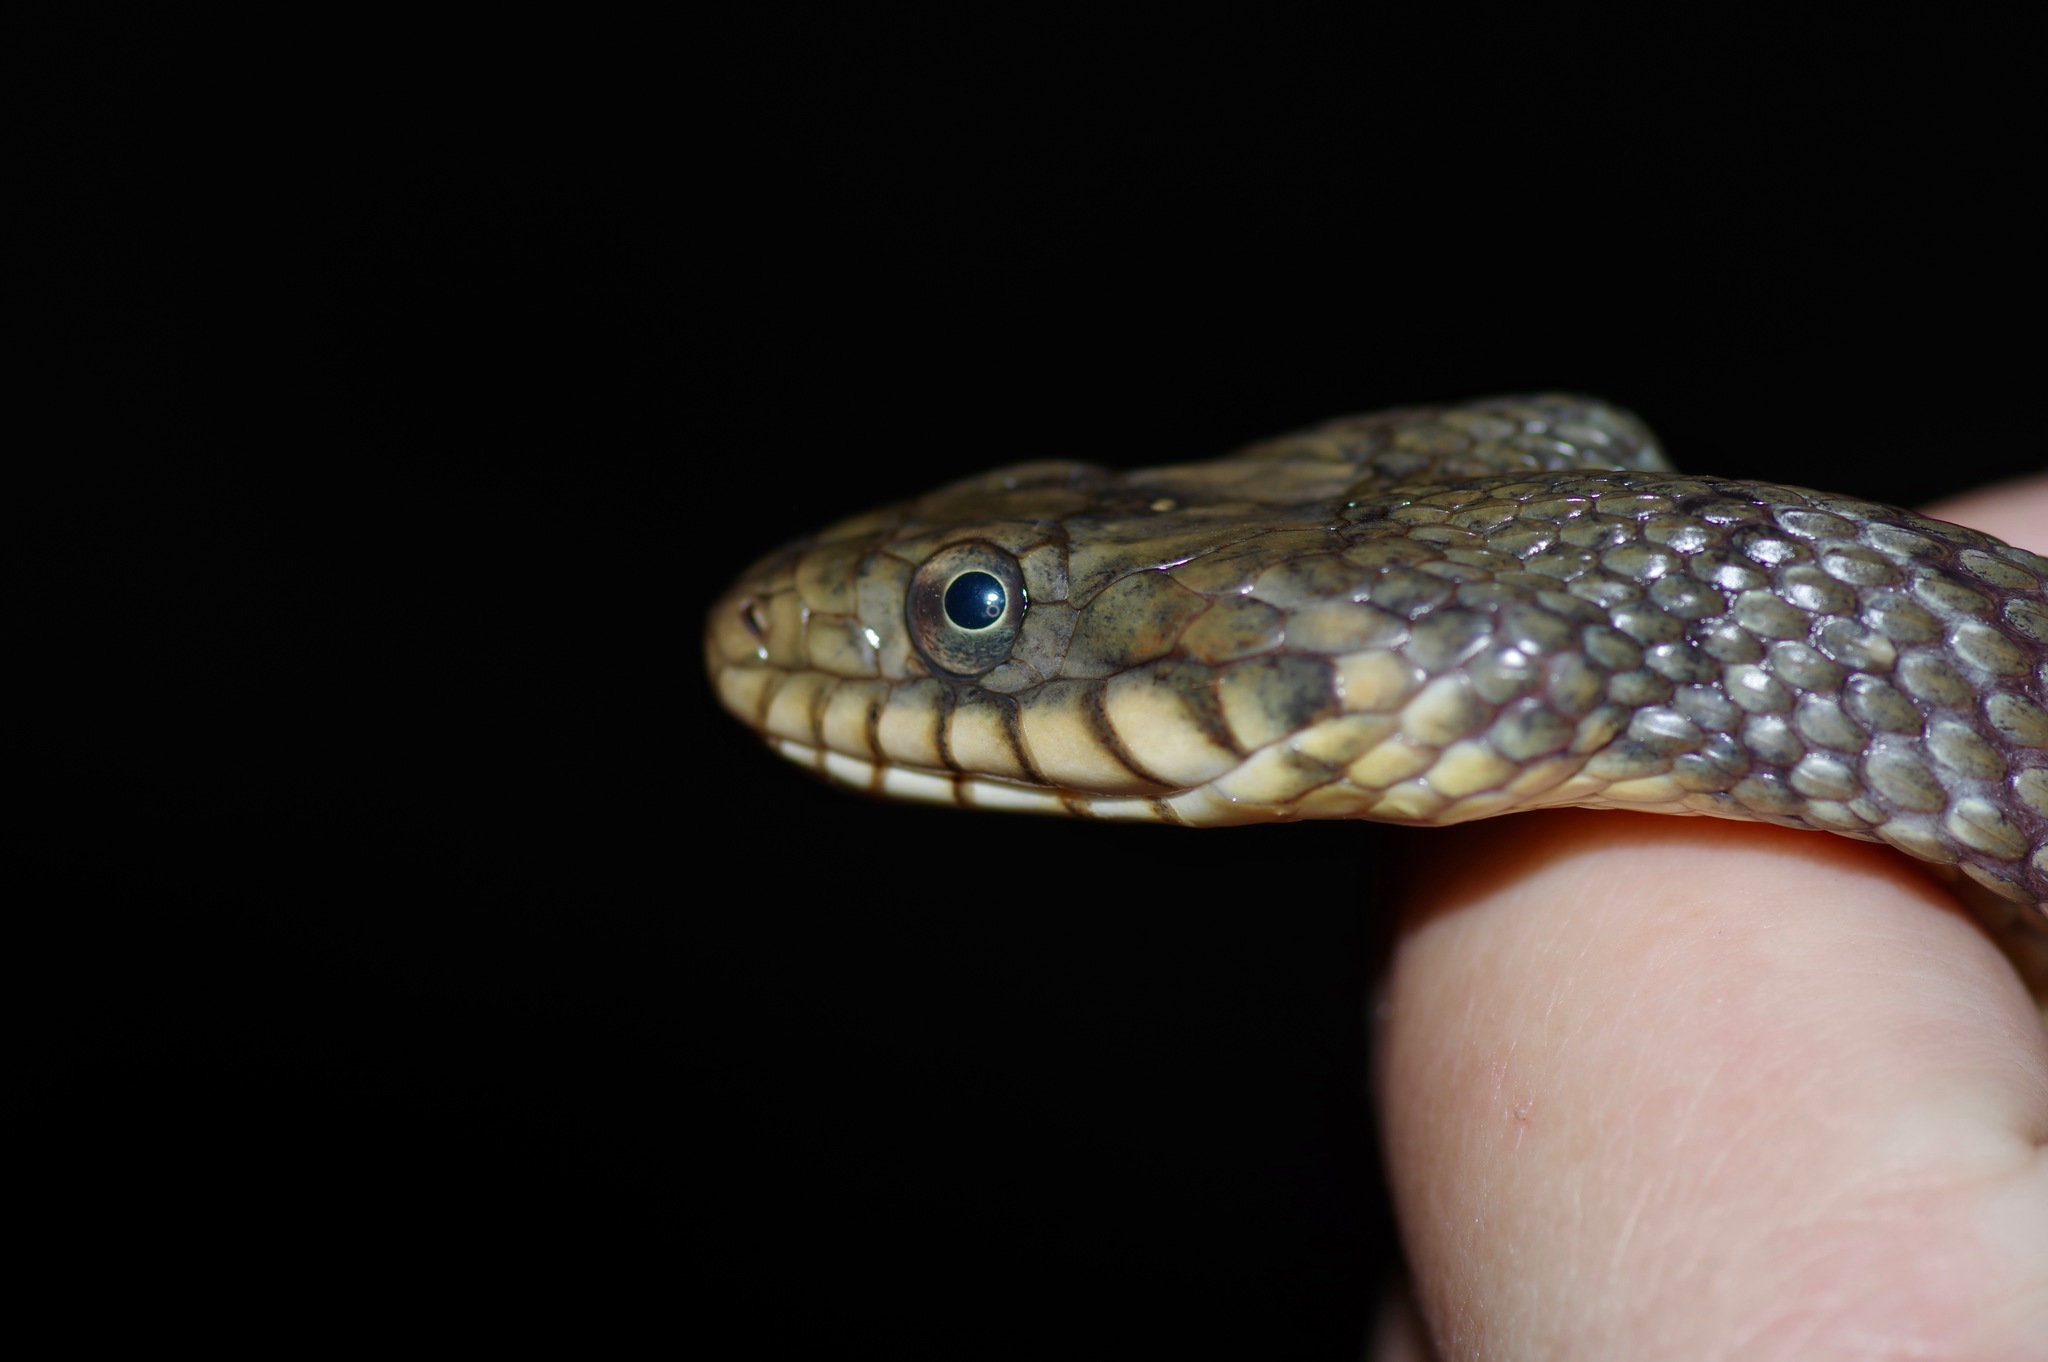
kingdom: Animalia
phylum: Chordata
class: Squamata
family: Colubridae
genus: Nerodia
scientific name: Nerodia erythrogaster
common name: Plainbelly water snake
